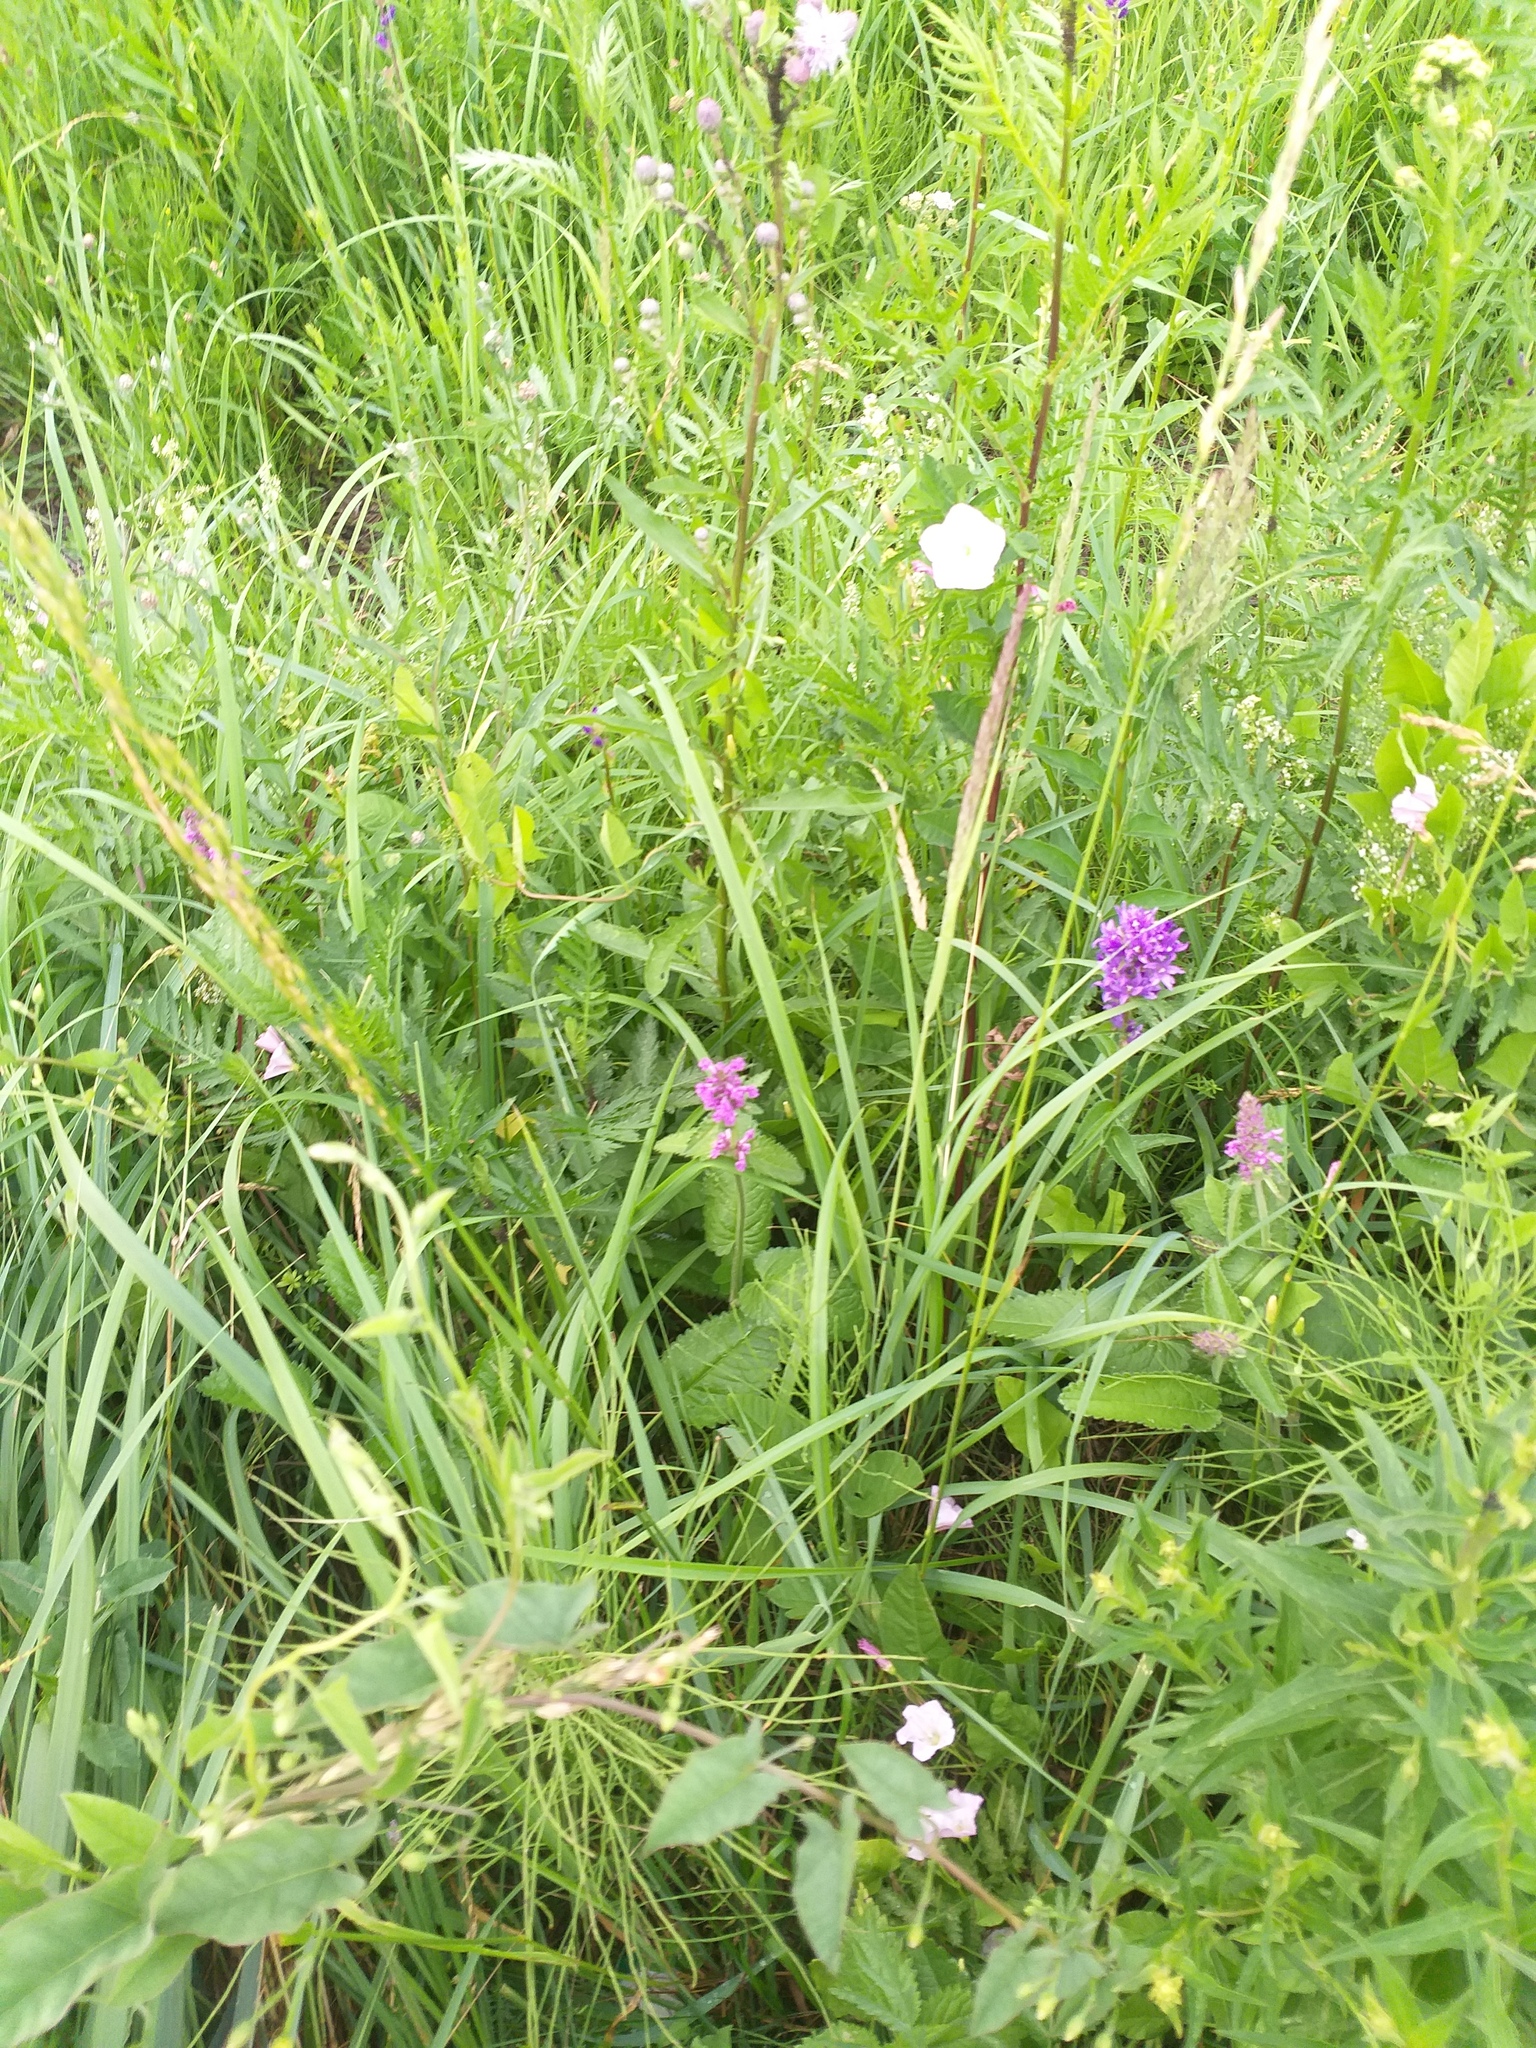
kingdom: Plantae
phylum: Tracheophyta
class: Magnoliopsida
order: Lamiales
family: Lamiaceae
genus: Betonica
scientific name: Betonica officinalis
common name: Bishop's-wort
